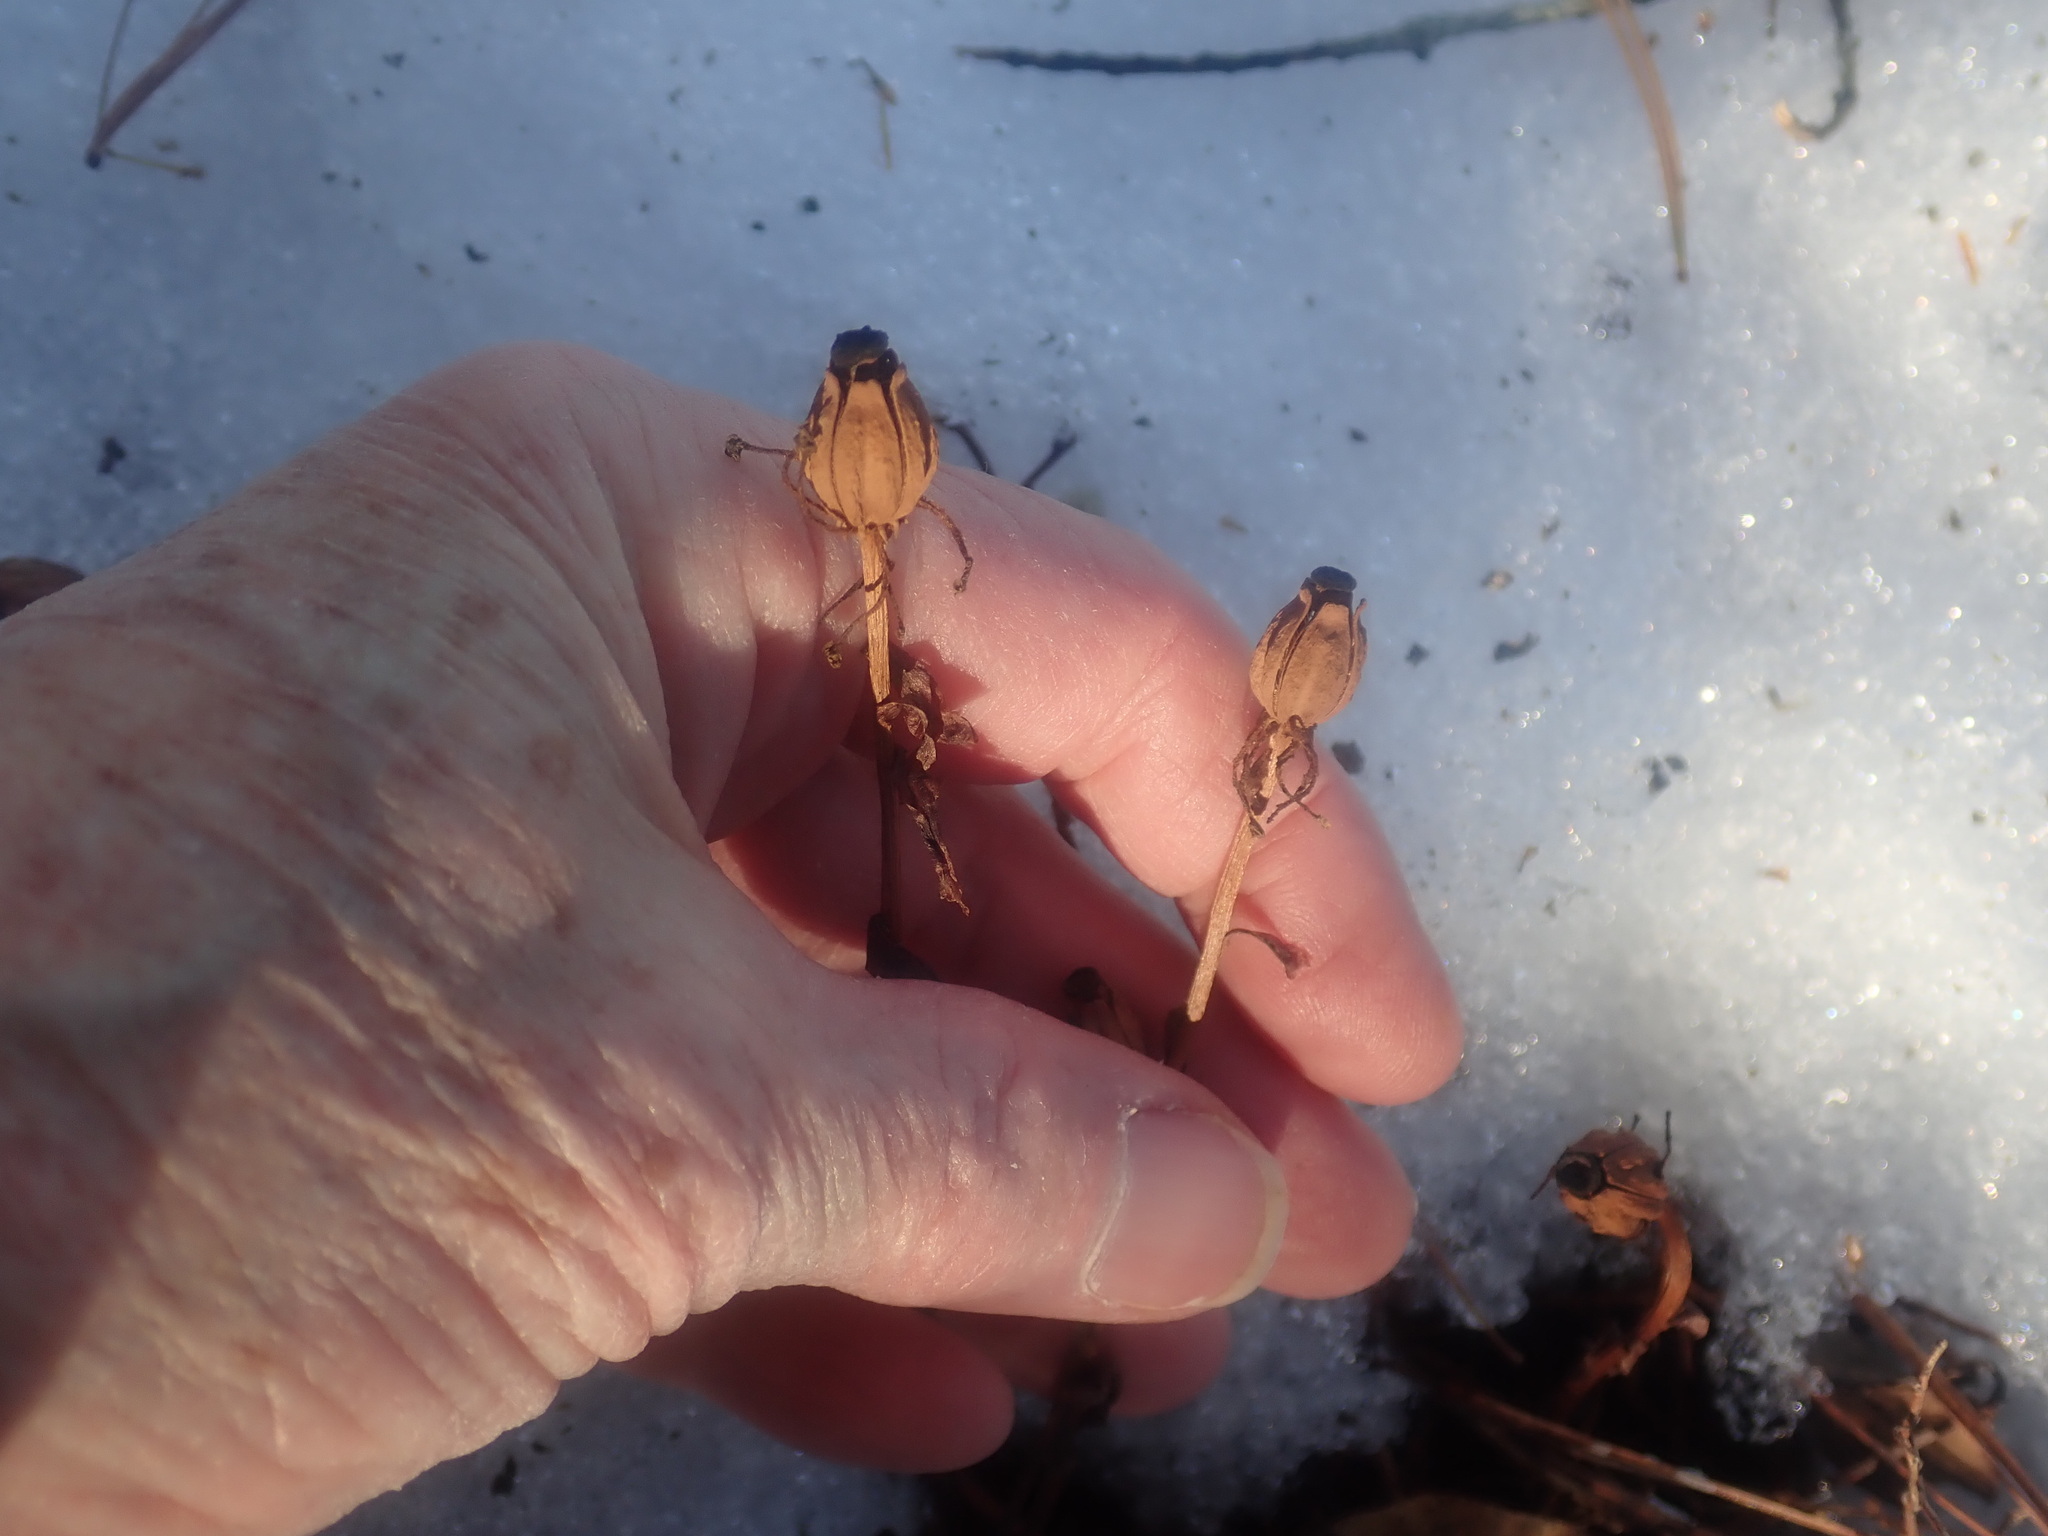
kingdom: Plantae
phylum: Tracheophyta
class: Magnoliopsida
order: Ericales
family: Ericaceae
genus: Monotropa
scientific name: Monotropa uniflora
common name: Convulsion root
